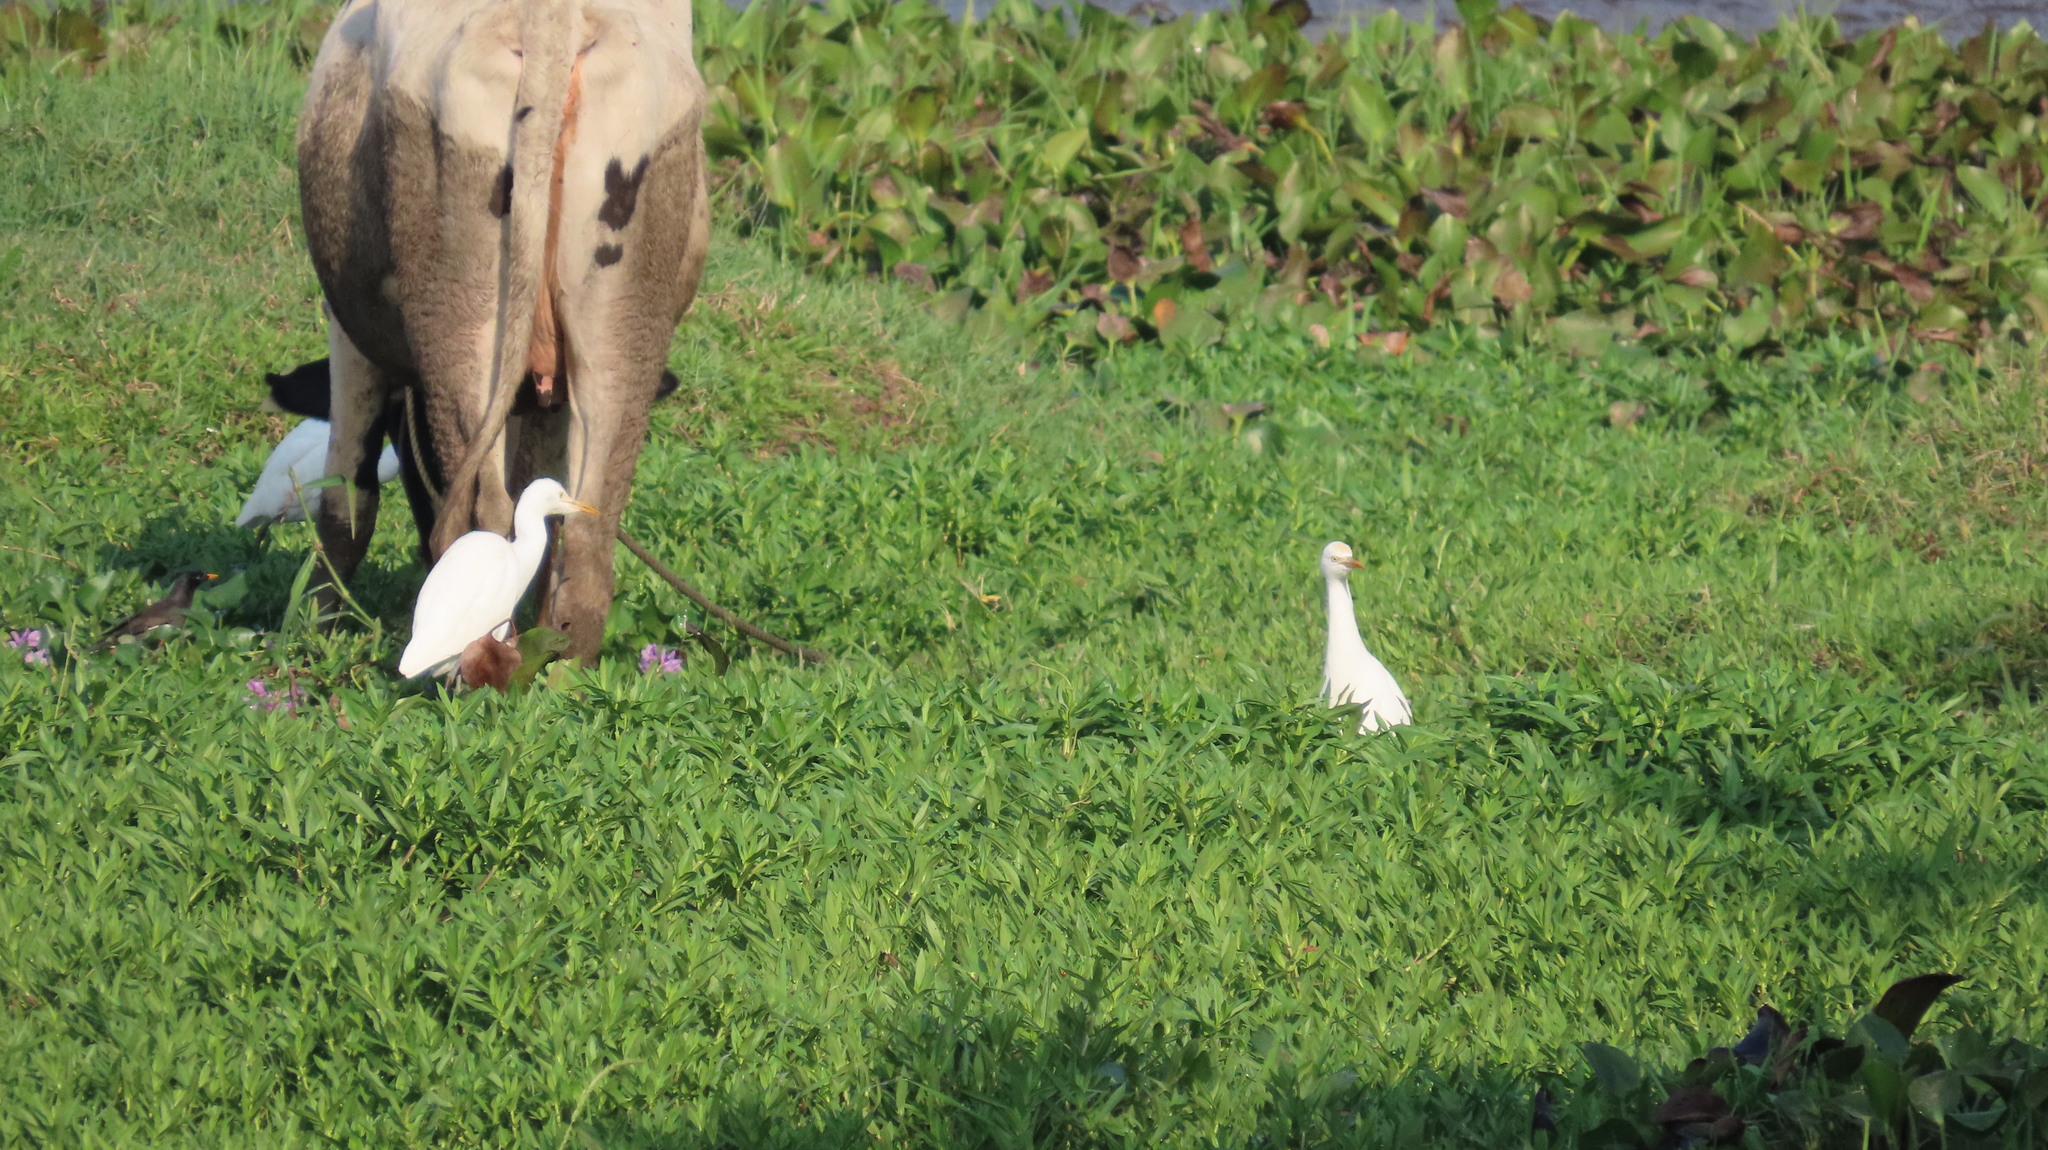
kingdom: Animalia
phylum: Chordata
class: Aves
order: Pelecaniformes
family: Ardeidae
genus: Bubulcus
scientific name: Bubulcus coromandus
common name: Eastern cattle egret
